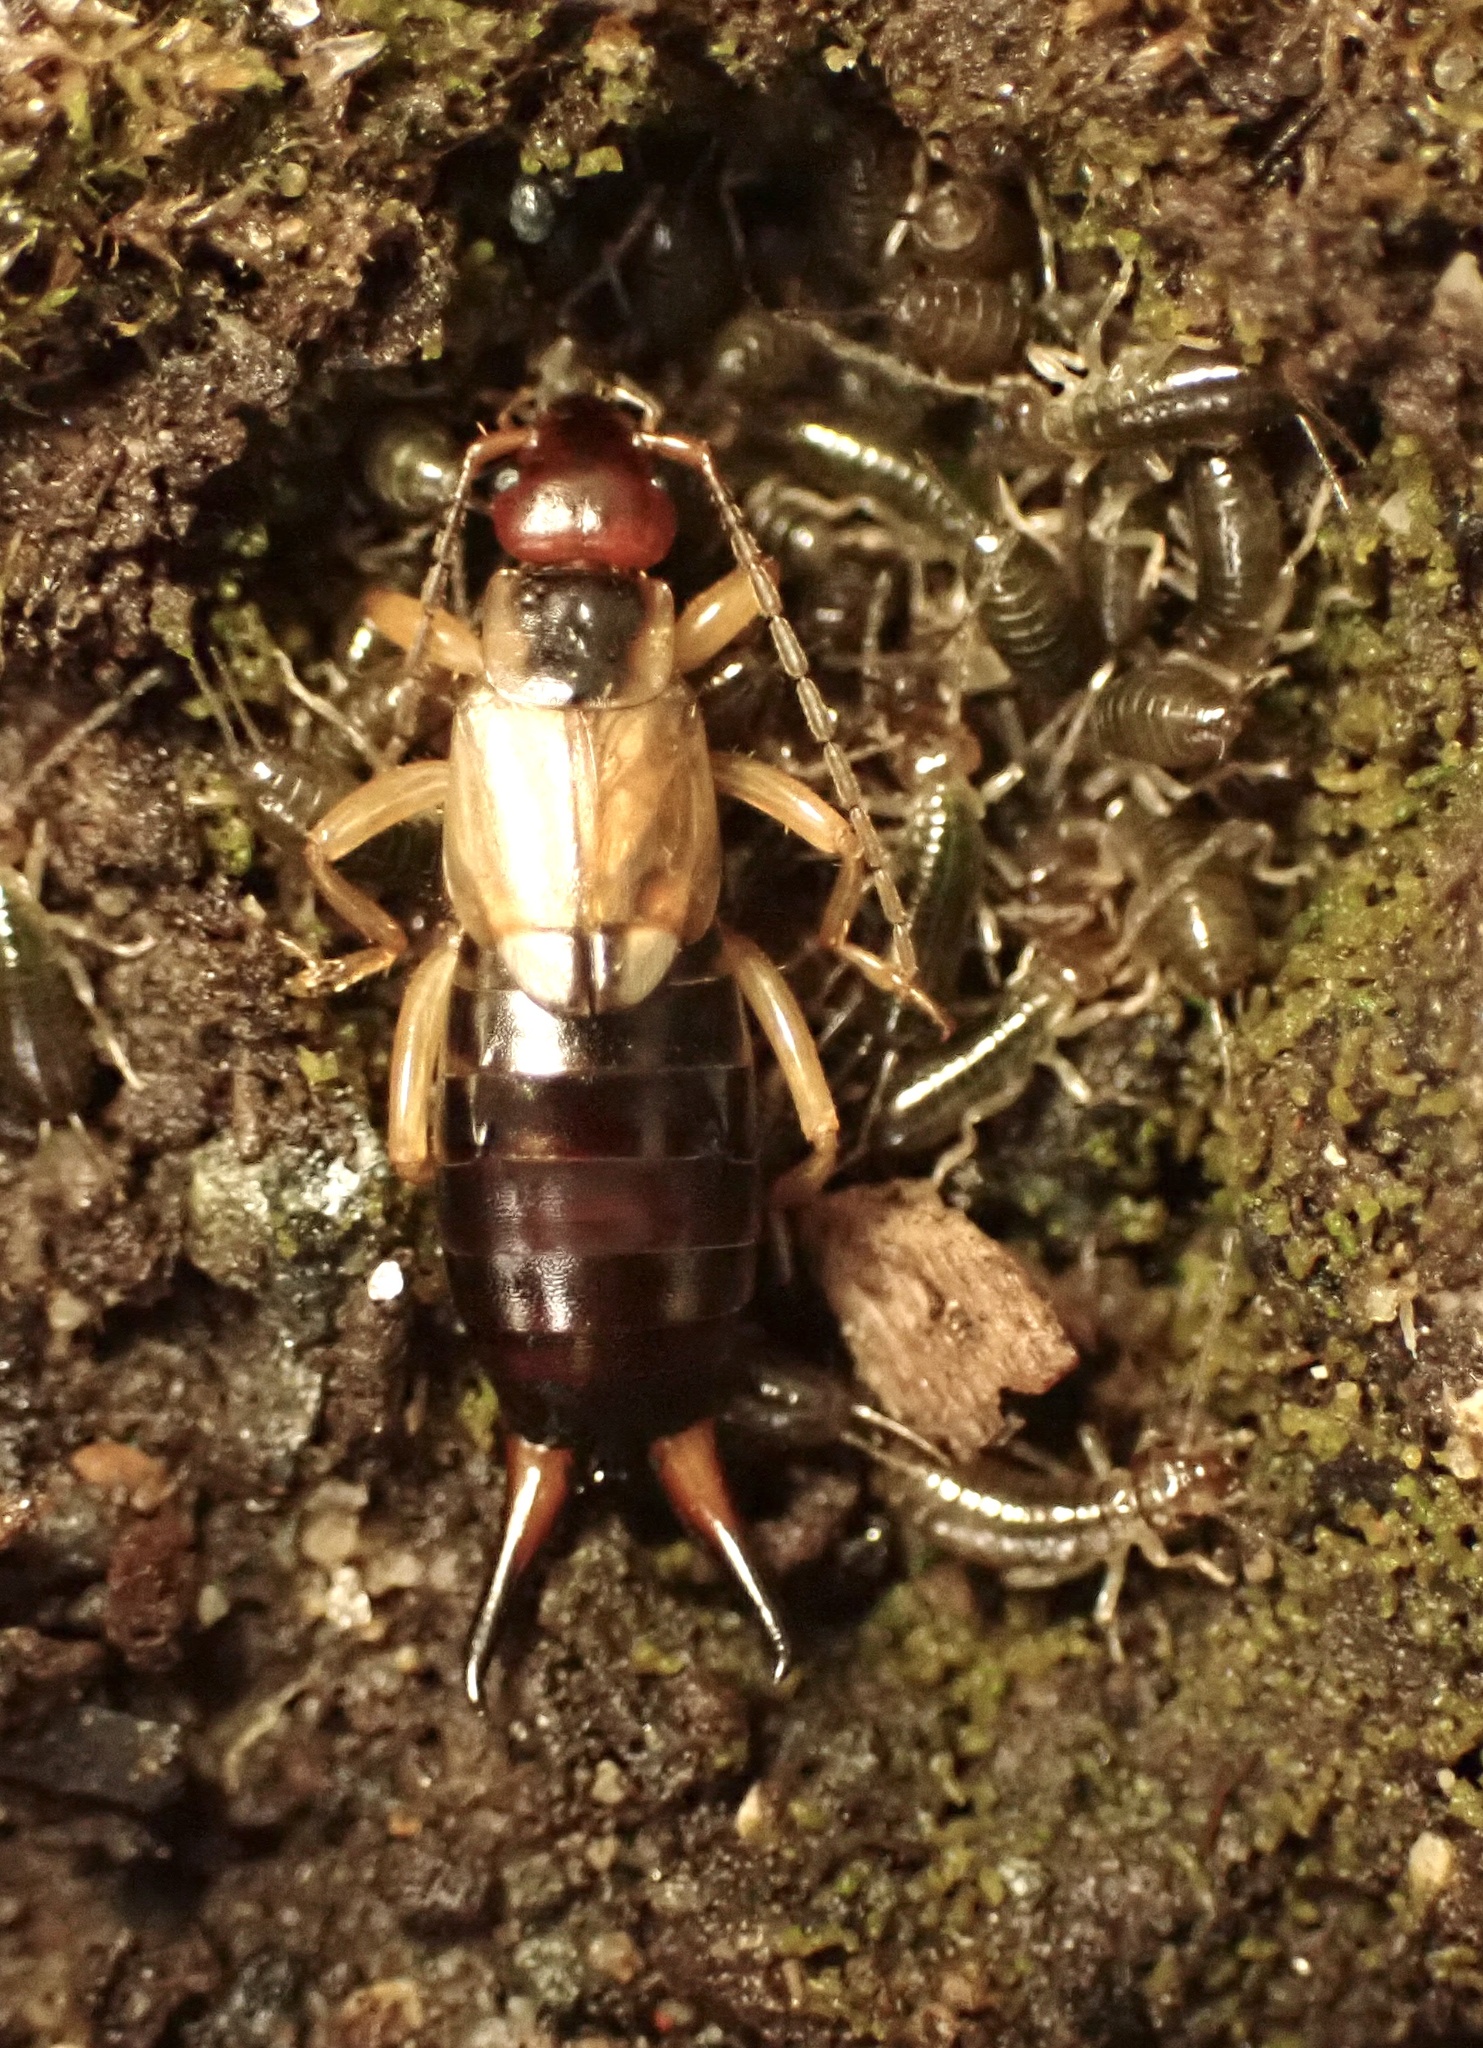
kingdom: Animalia
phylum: Arthropoda
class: Insecta
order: Dermaptera
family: Forficulidae
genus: Forficula
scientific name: Forficula
